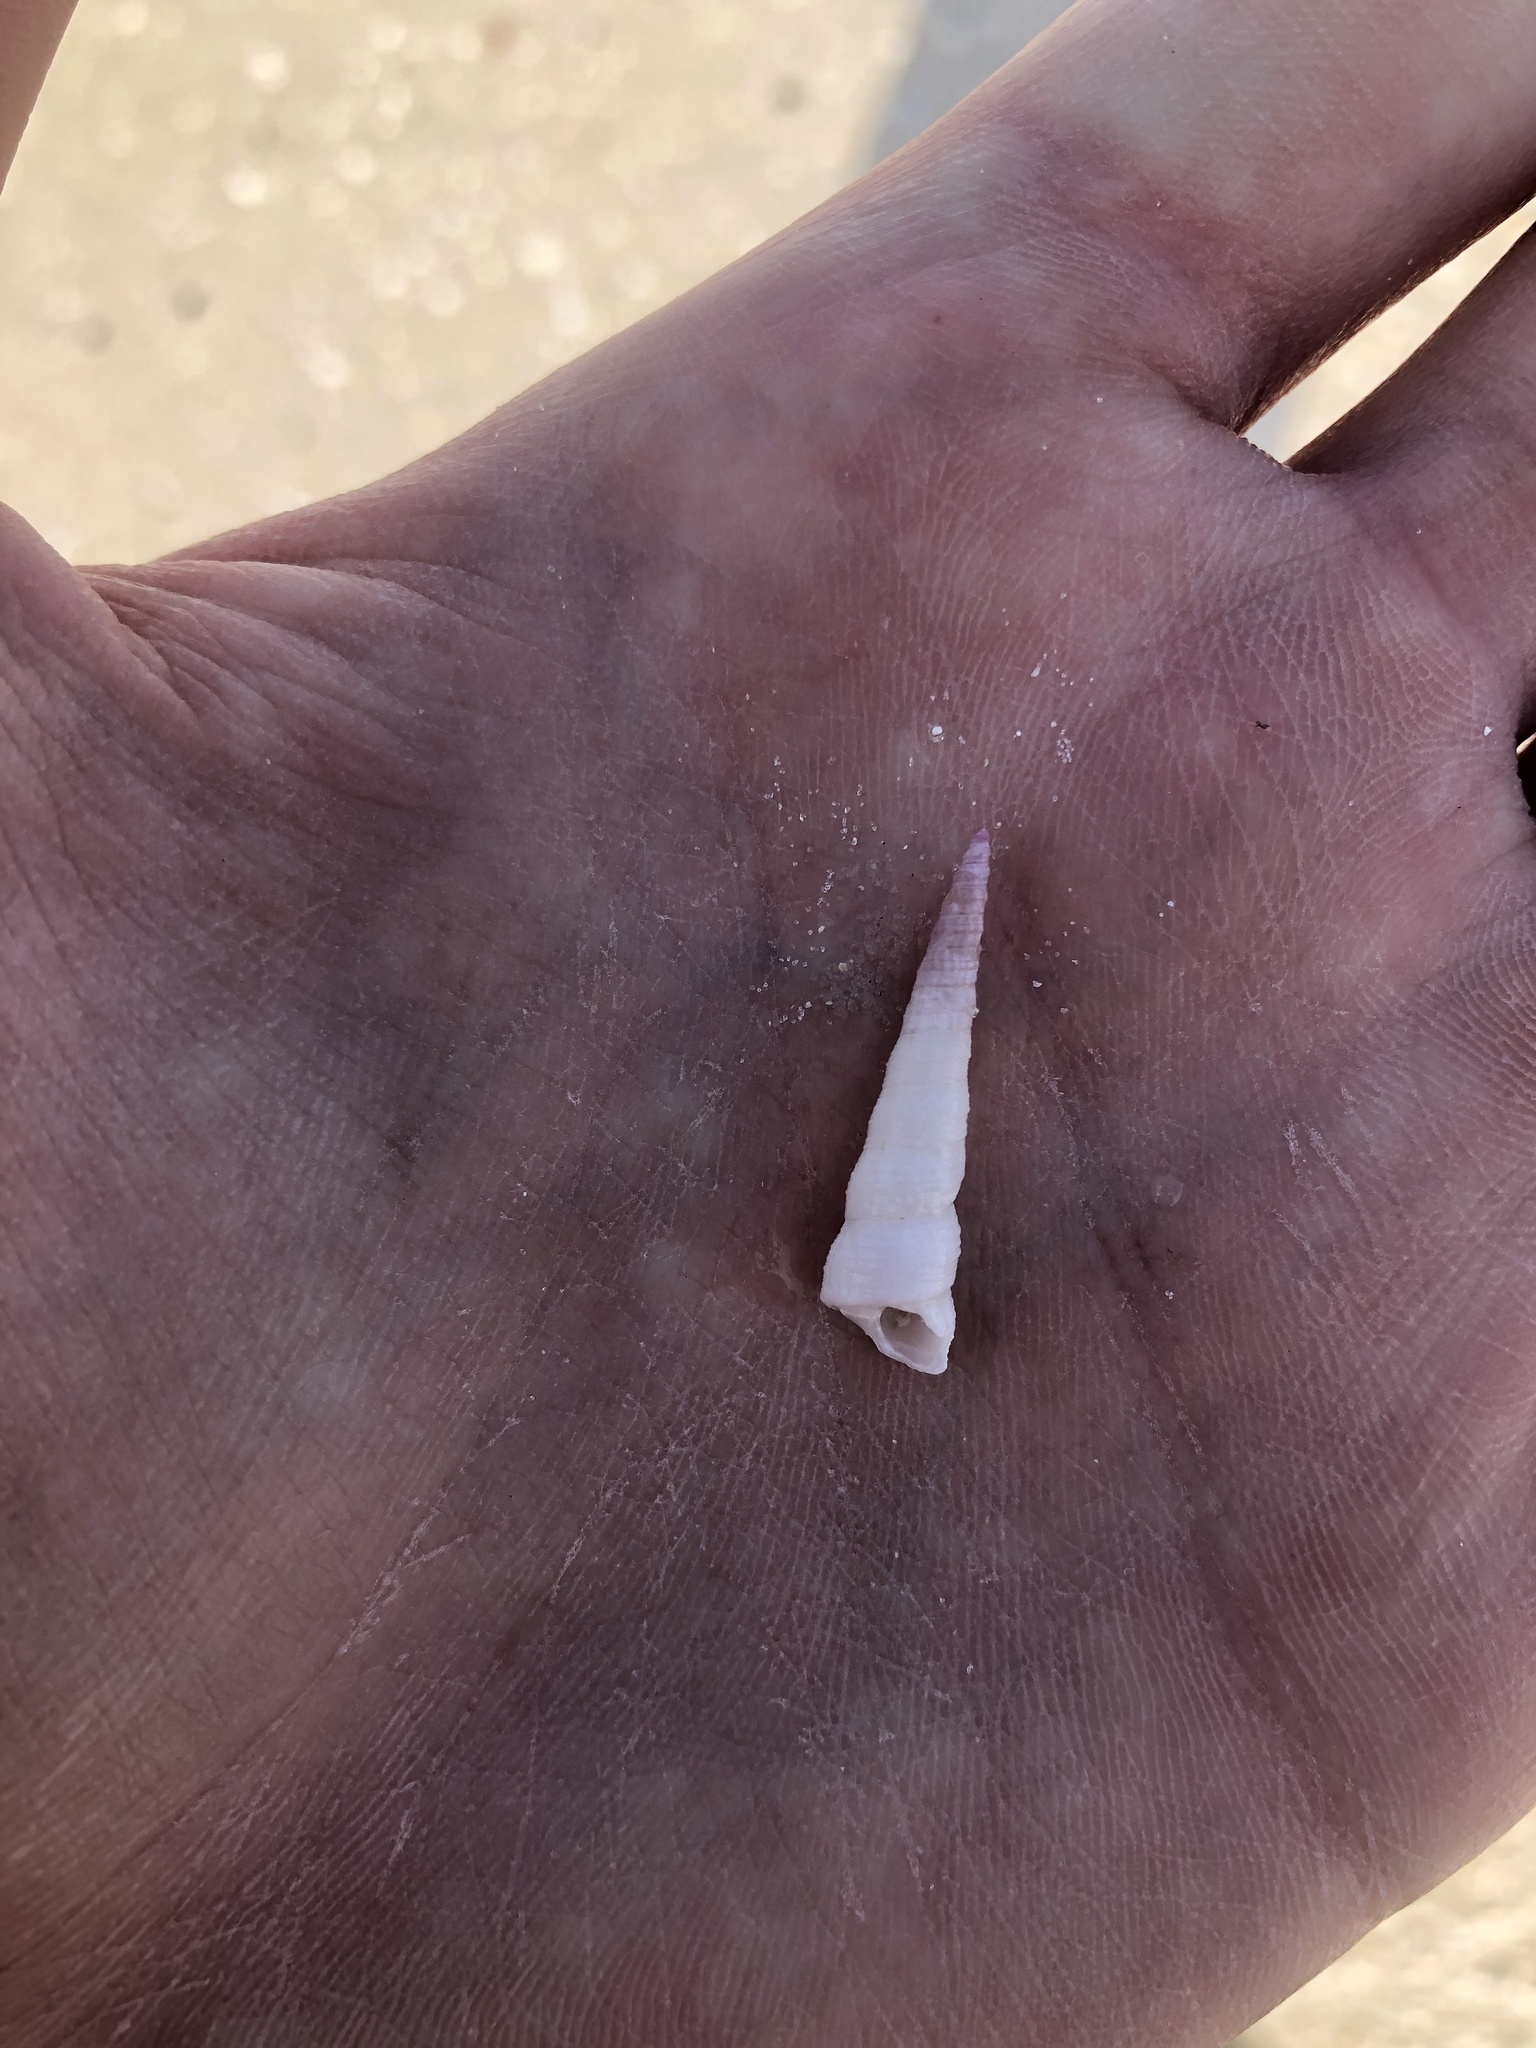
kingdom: Animalia
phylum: Mollusca
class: Gastropoda
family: Turritellidae
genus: Turritella
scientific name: Turritella acropora
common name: Boring turretsnail
